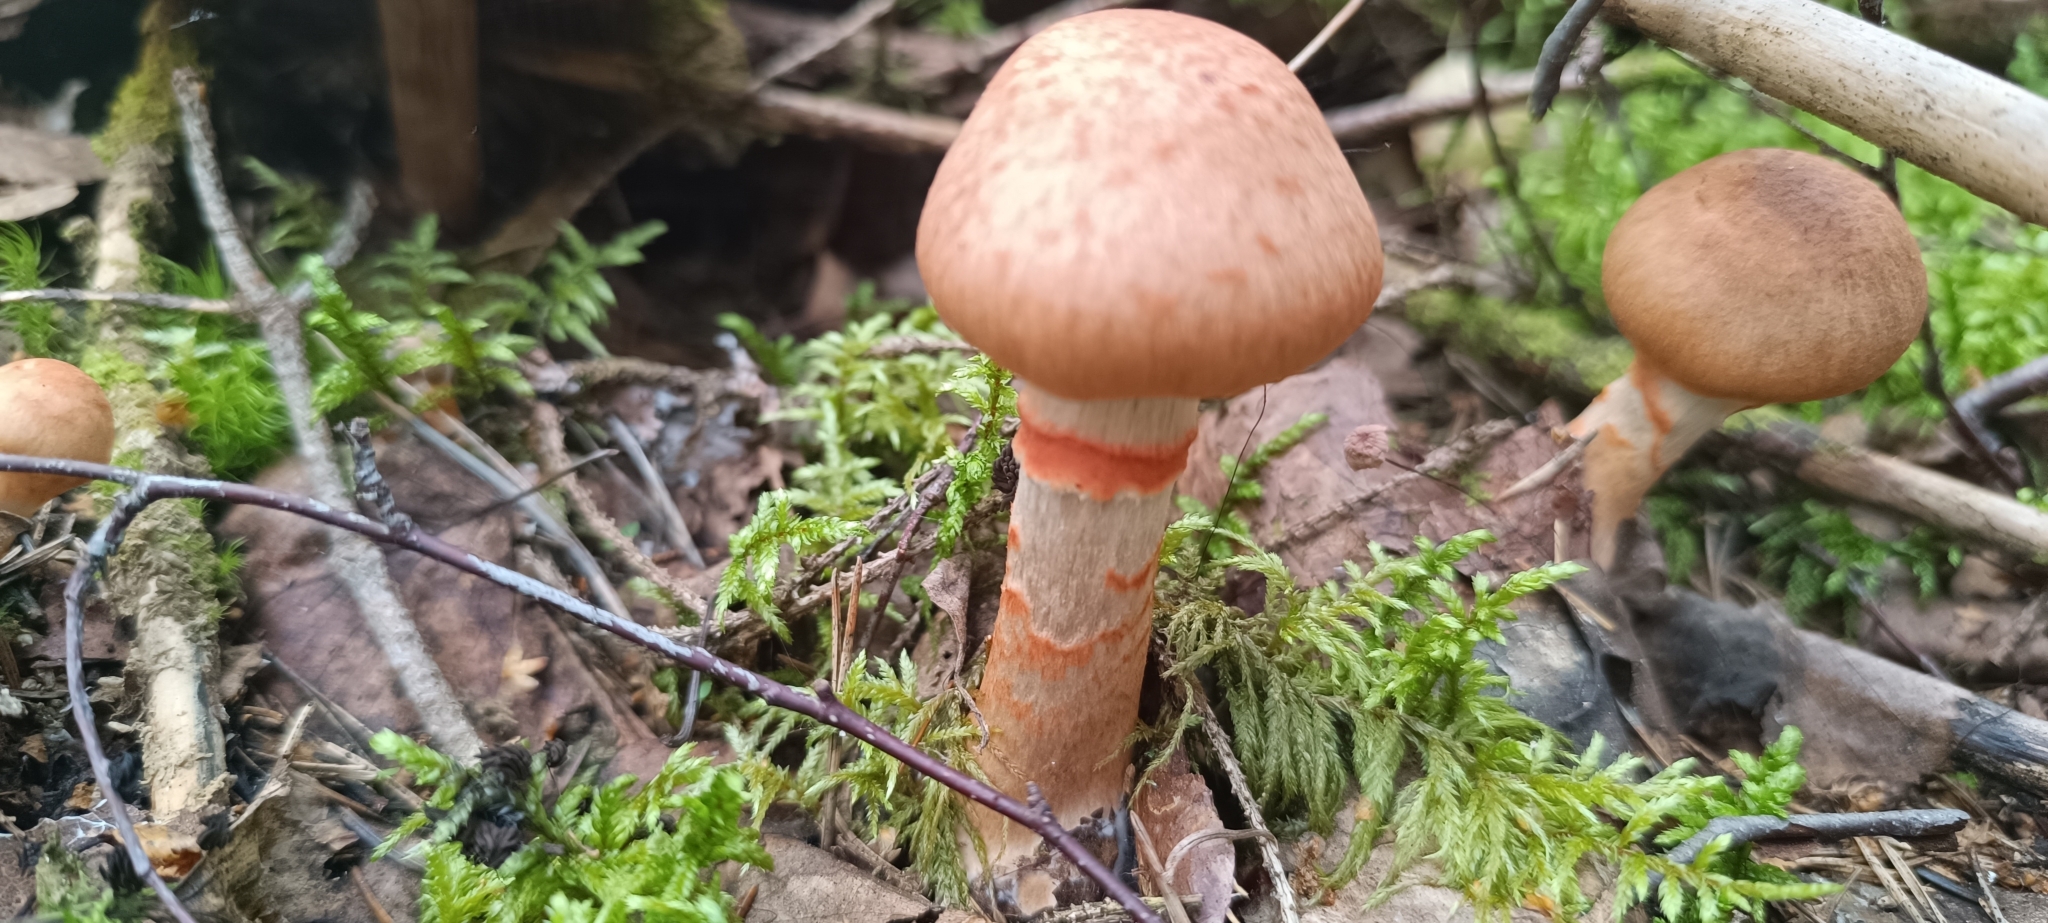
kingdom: Fungi
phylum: Basidiomycota
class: Agaricomycetes
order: Agaricales
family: Cortinariaceae
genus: Cortinarius
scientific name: Cortinarius armillatus
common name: Red banded webcap
